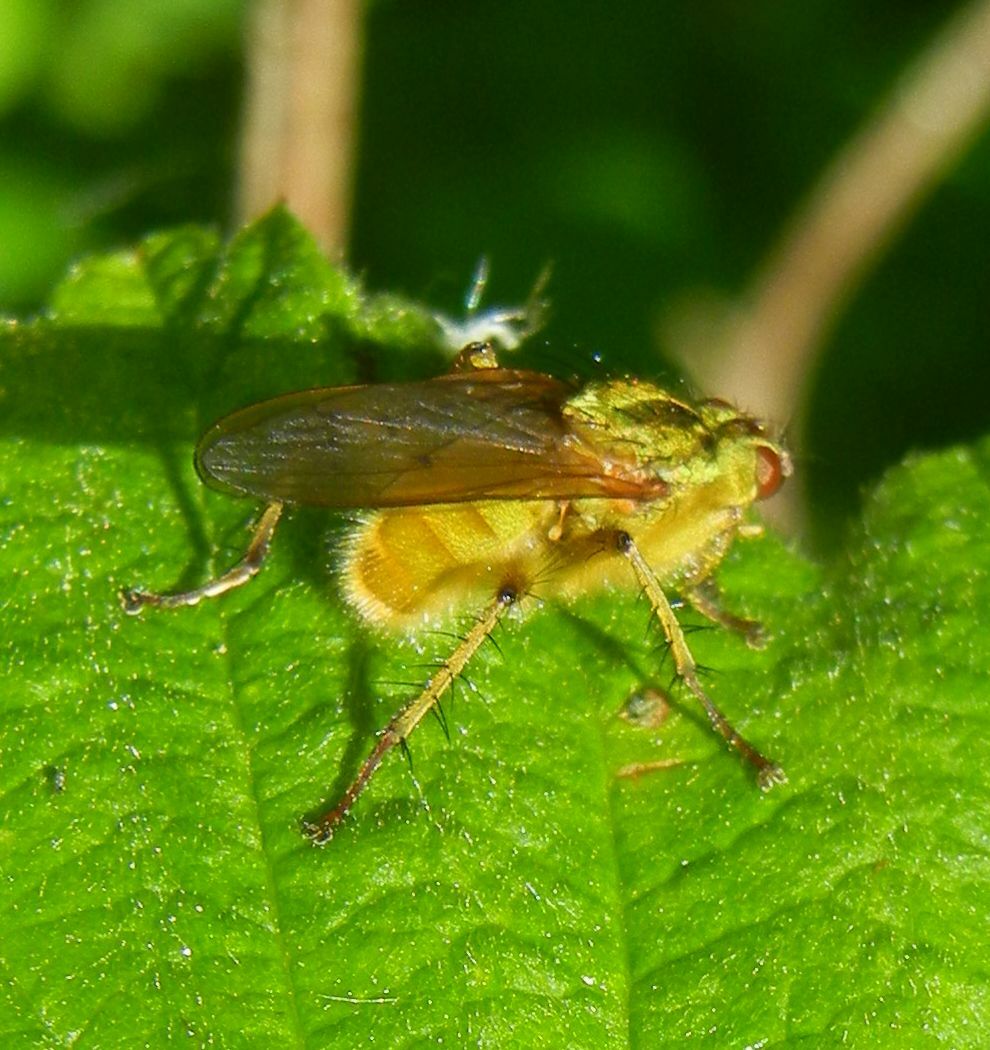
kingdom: Animalia
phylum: Arthropoda
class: Insecta
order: Diptera
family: Scathophagidae
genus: Scathophaga
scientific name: Scathophaga stercoraria
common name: Yellow dung fly
